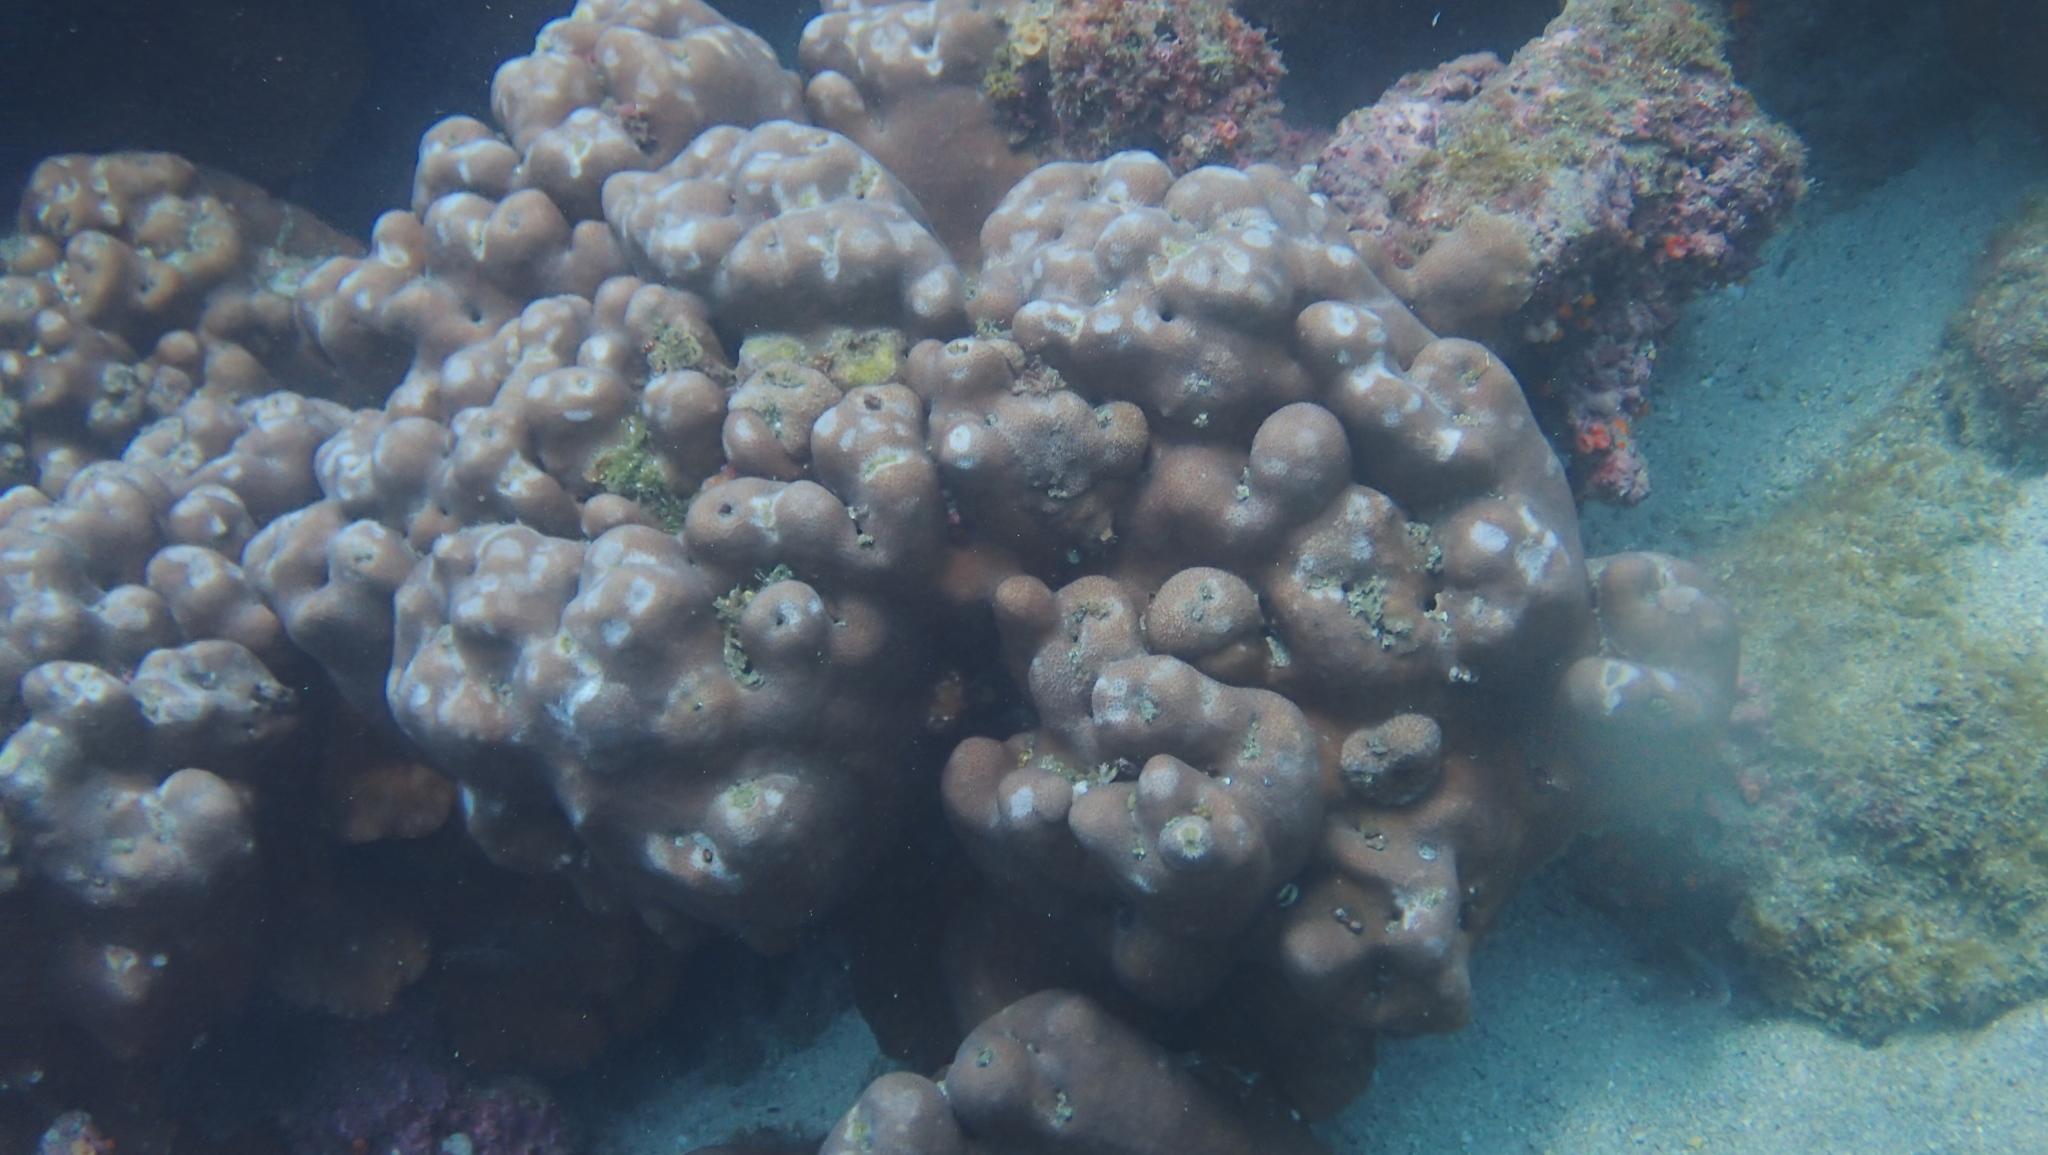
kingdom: Animalia
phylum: Cnidaria
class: Anthozoa
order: Scleractinia
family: Agariciidae
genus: Pavona
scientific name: Pavona gigantea
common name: Leaf coral
